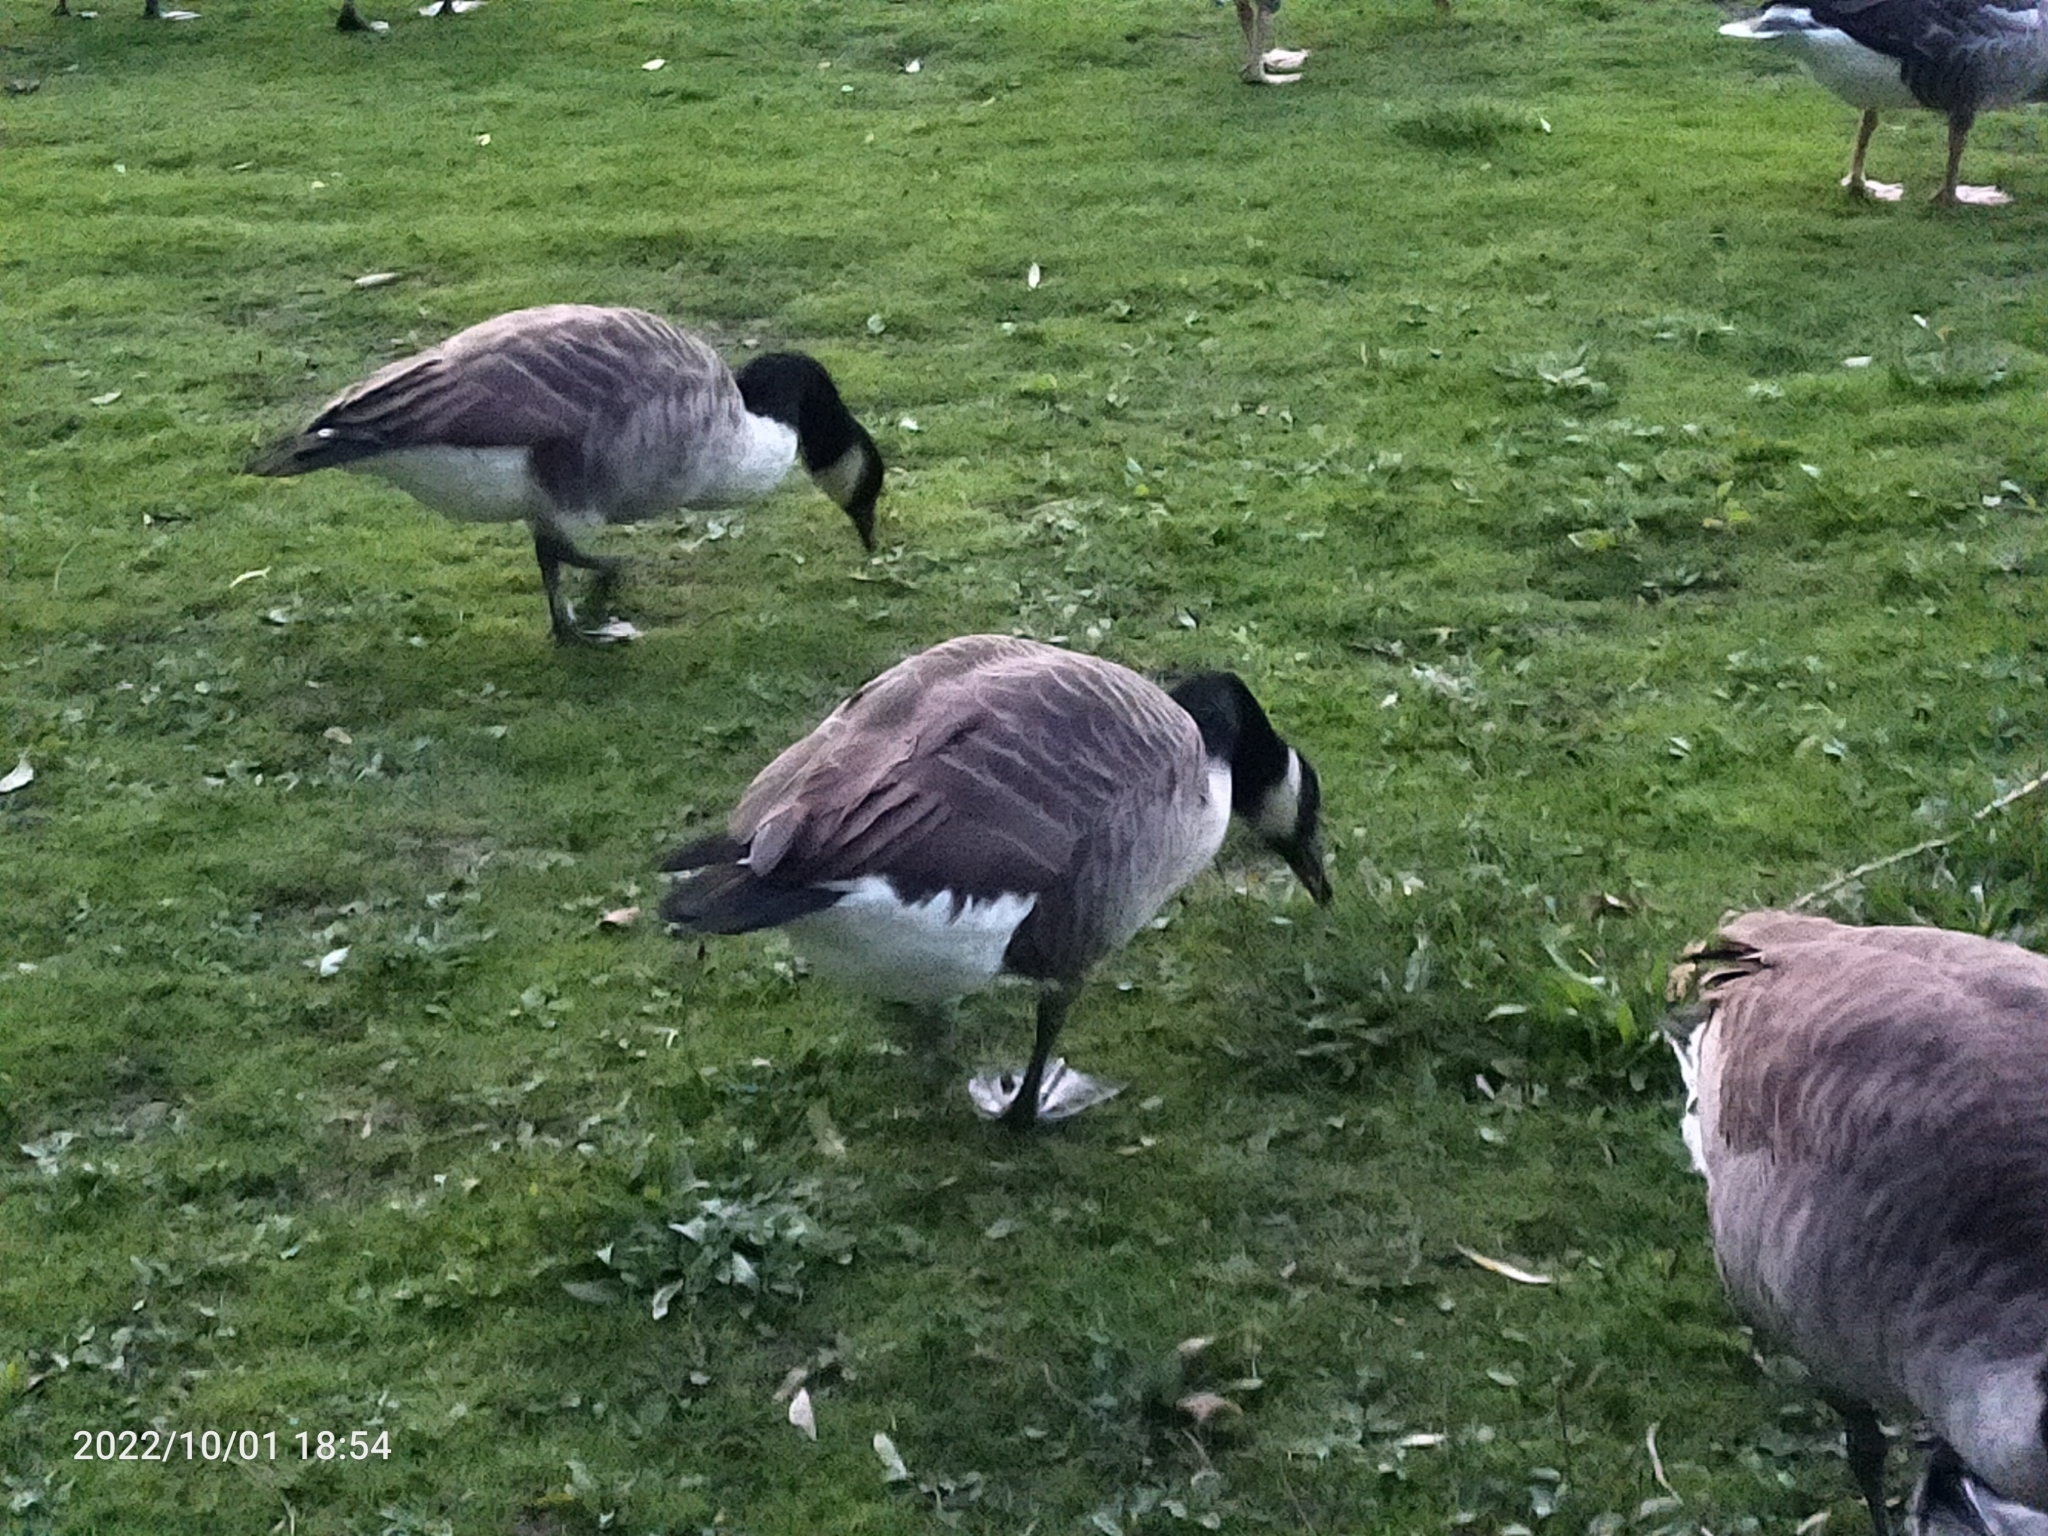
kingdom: Animalia
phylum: Chordata
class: Aves
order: Anseriformes
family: Anatidae
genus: Branta
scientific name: Branta canadensis
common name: Canada goose
